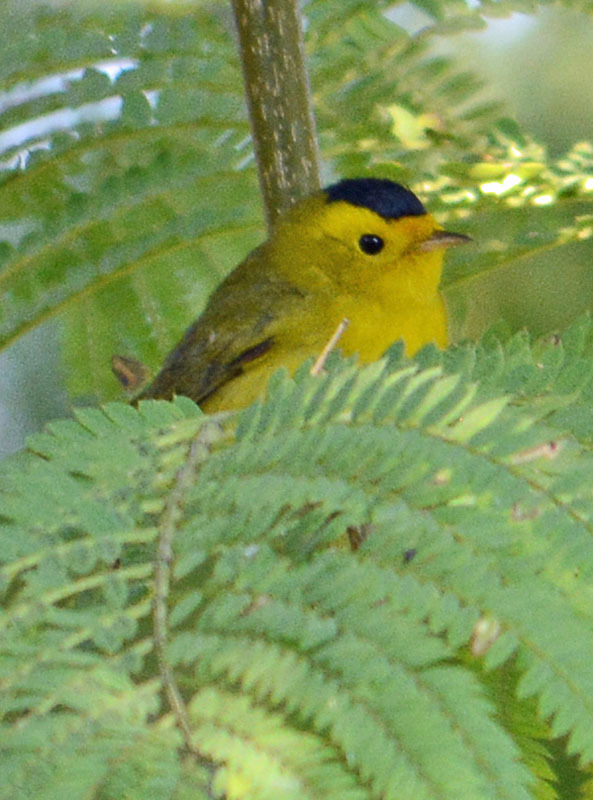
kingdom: Animalia
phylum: Chordata
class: Aves
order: Passeriformes
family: Parulidae
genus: Cardellina
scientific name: Cardellina pusilla
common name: Wilson's warbler
